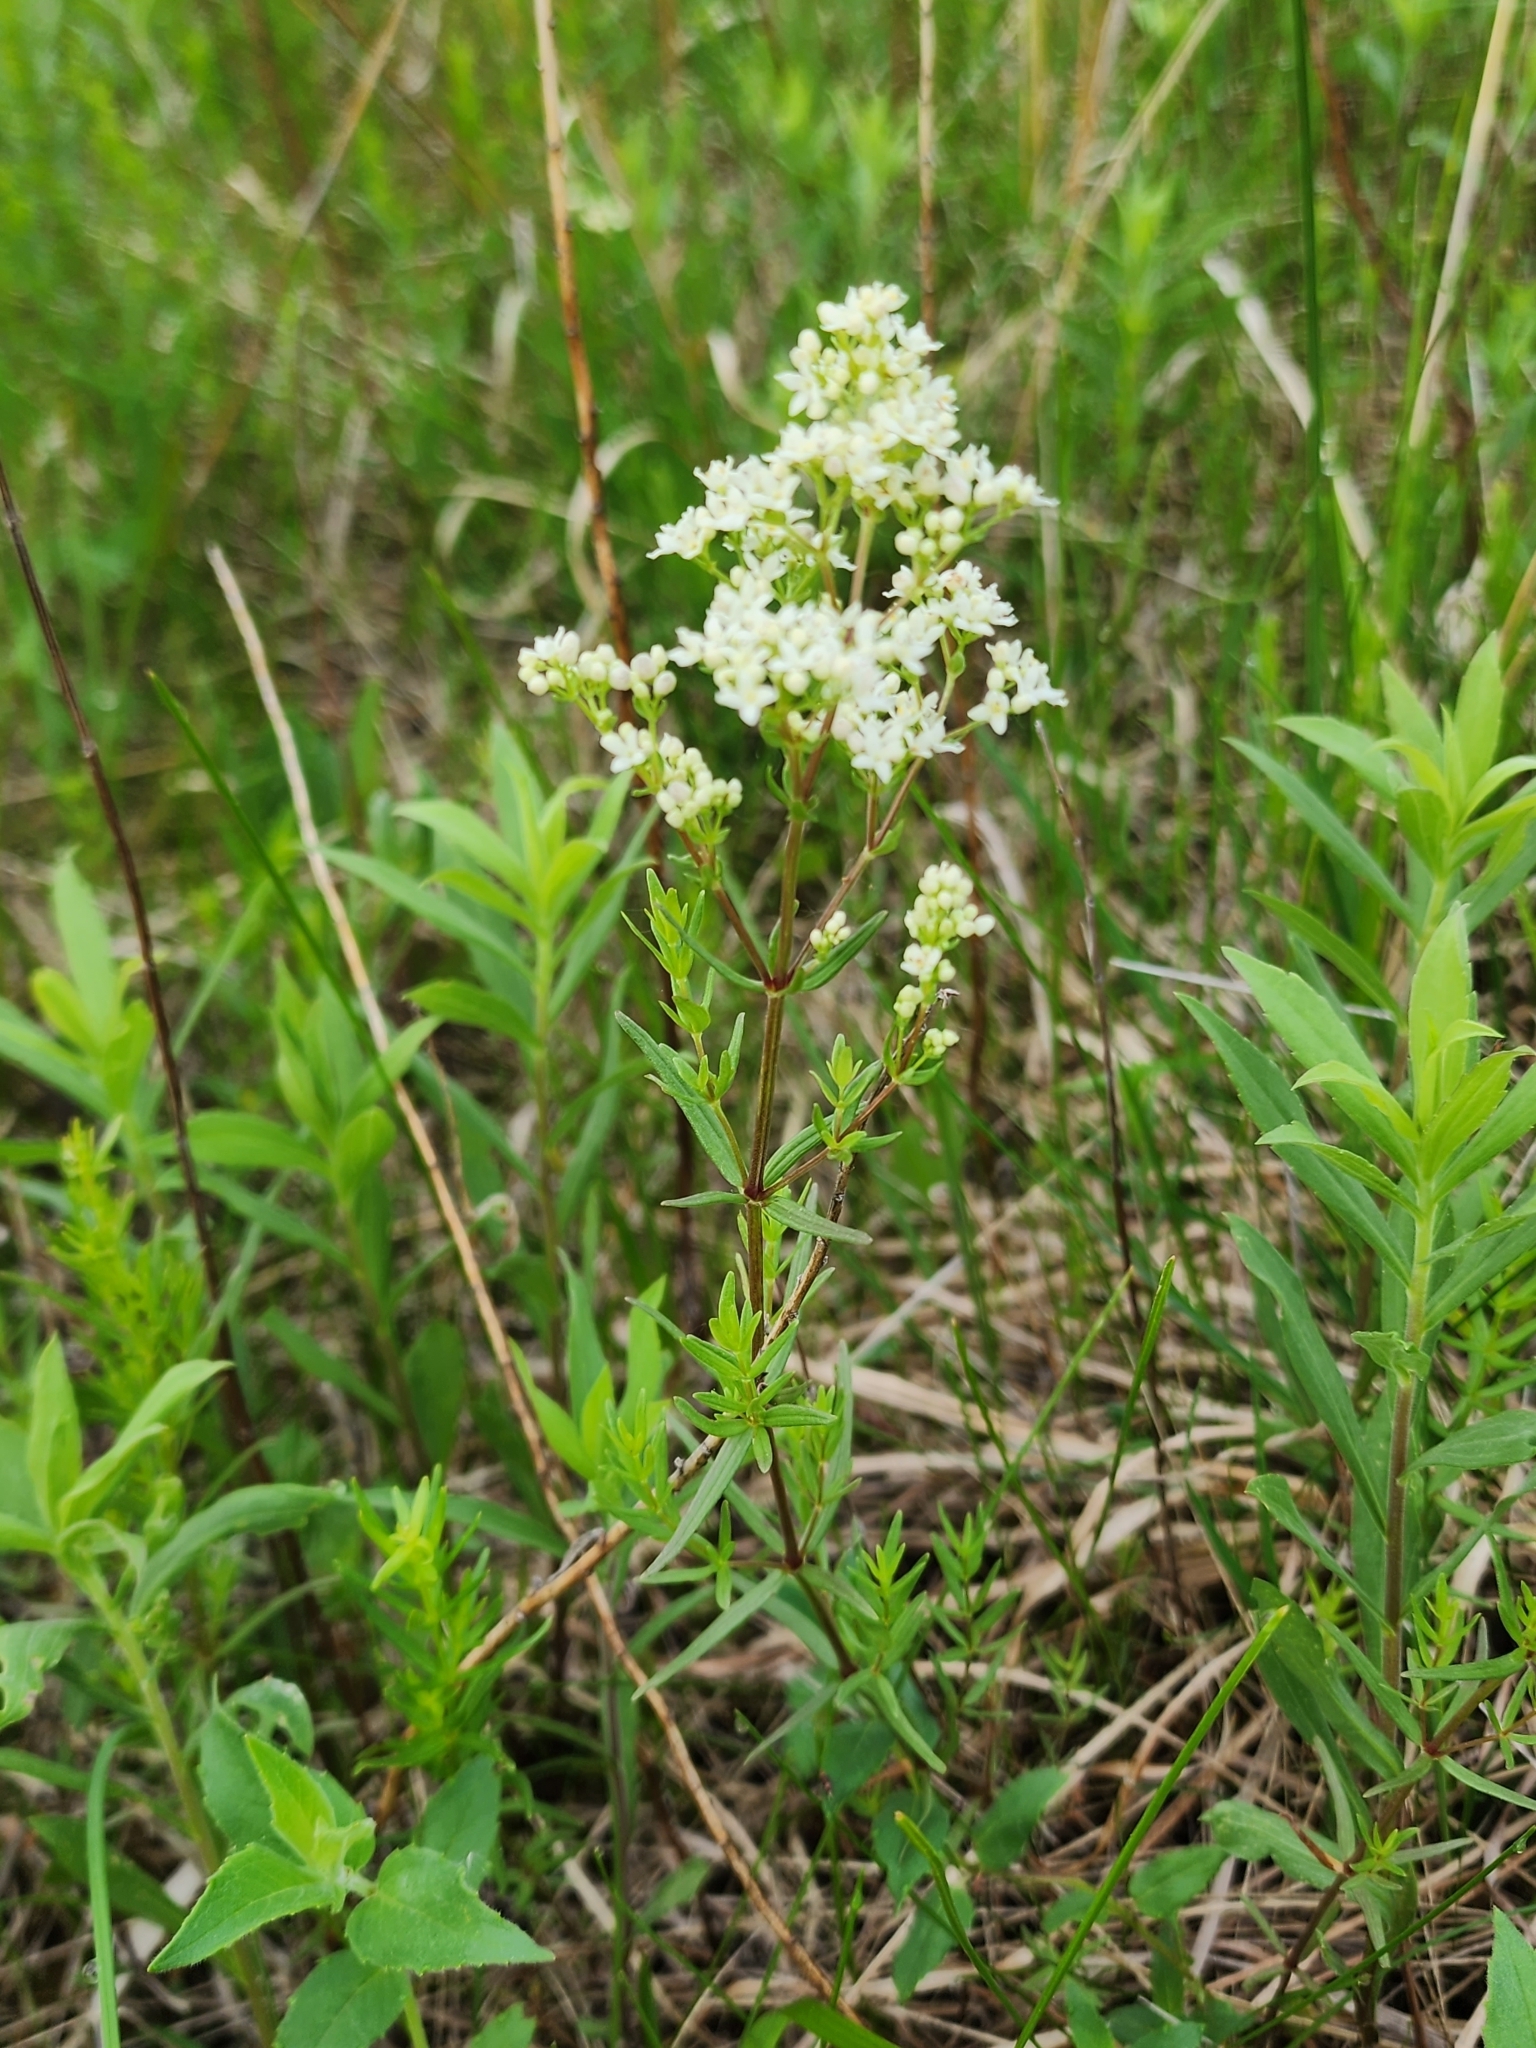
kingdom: Plantae
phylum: Tracheophyta
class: Magnoliopsida
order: Gentianales
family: Rubiaceae
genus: Galium
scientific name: Galium boreale
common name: Northern bedstraw
